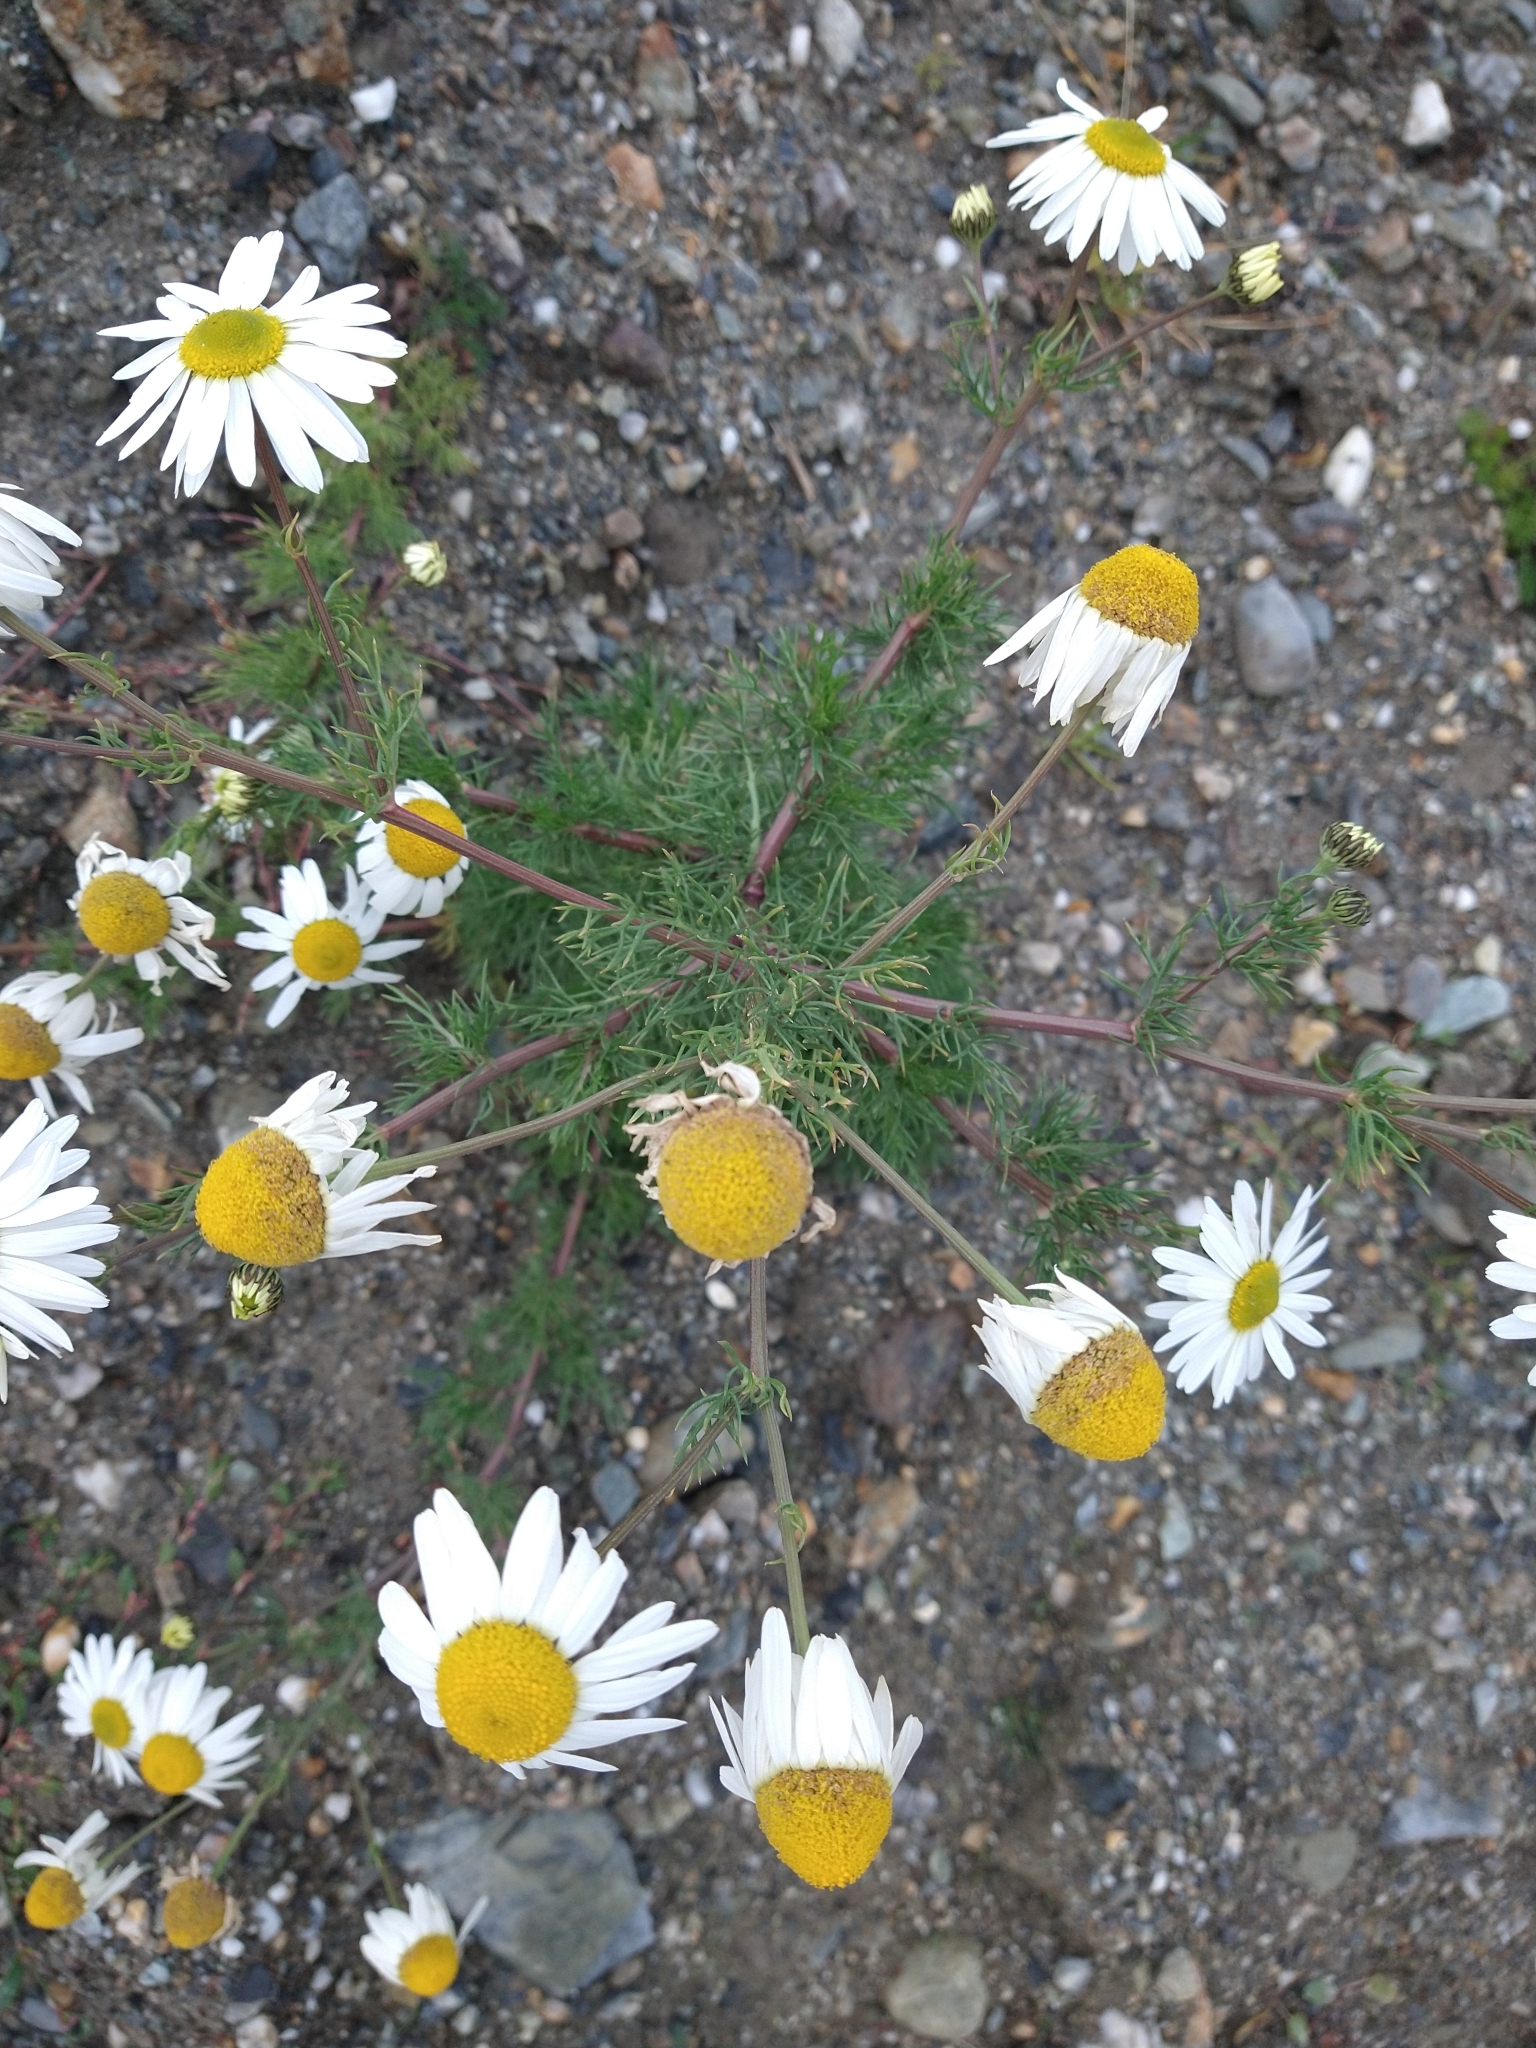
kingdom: Plantae
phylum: Tracheophyta
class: Magnoliopsida
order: Asterales
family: Asteraceae
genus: Tripleurospermum
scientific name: Tripleurospermum inodorum
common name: Scentless mayweed
